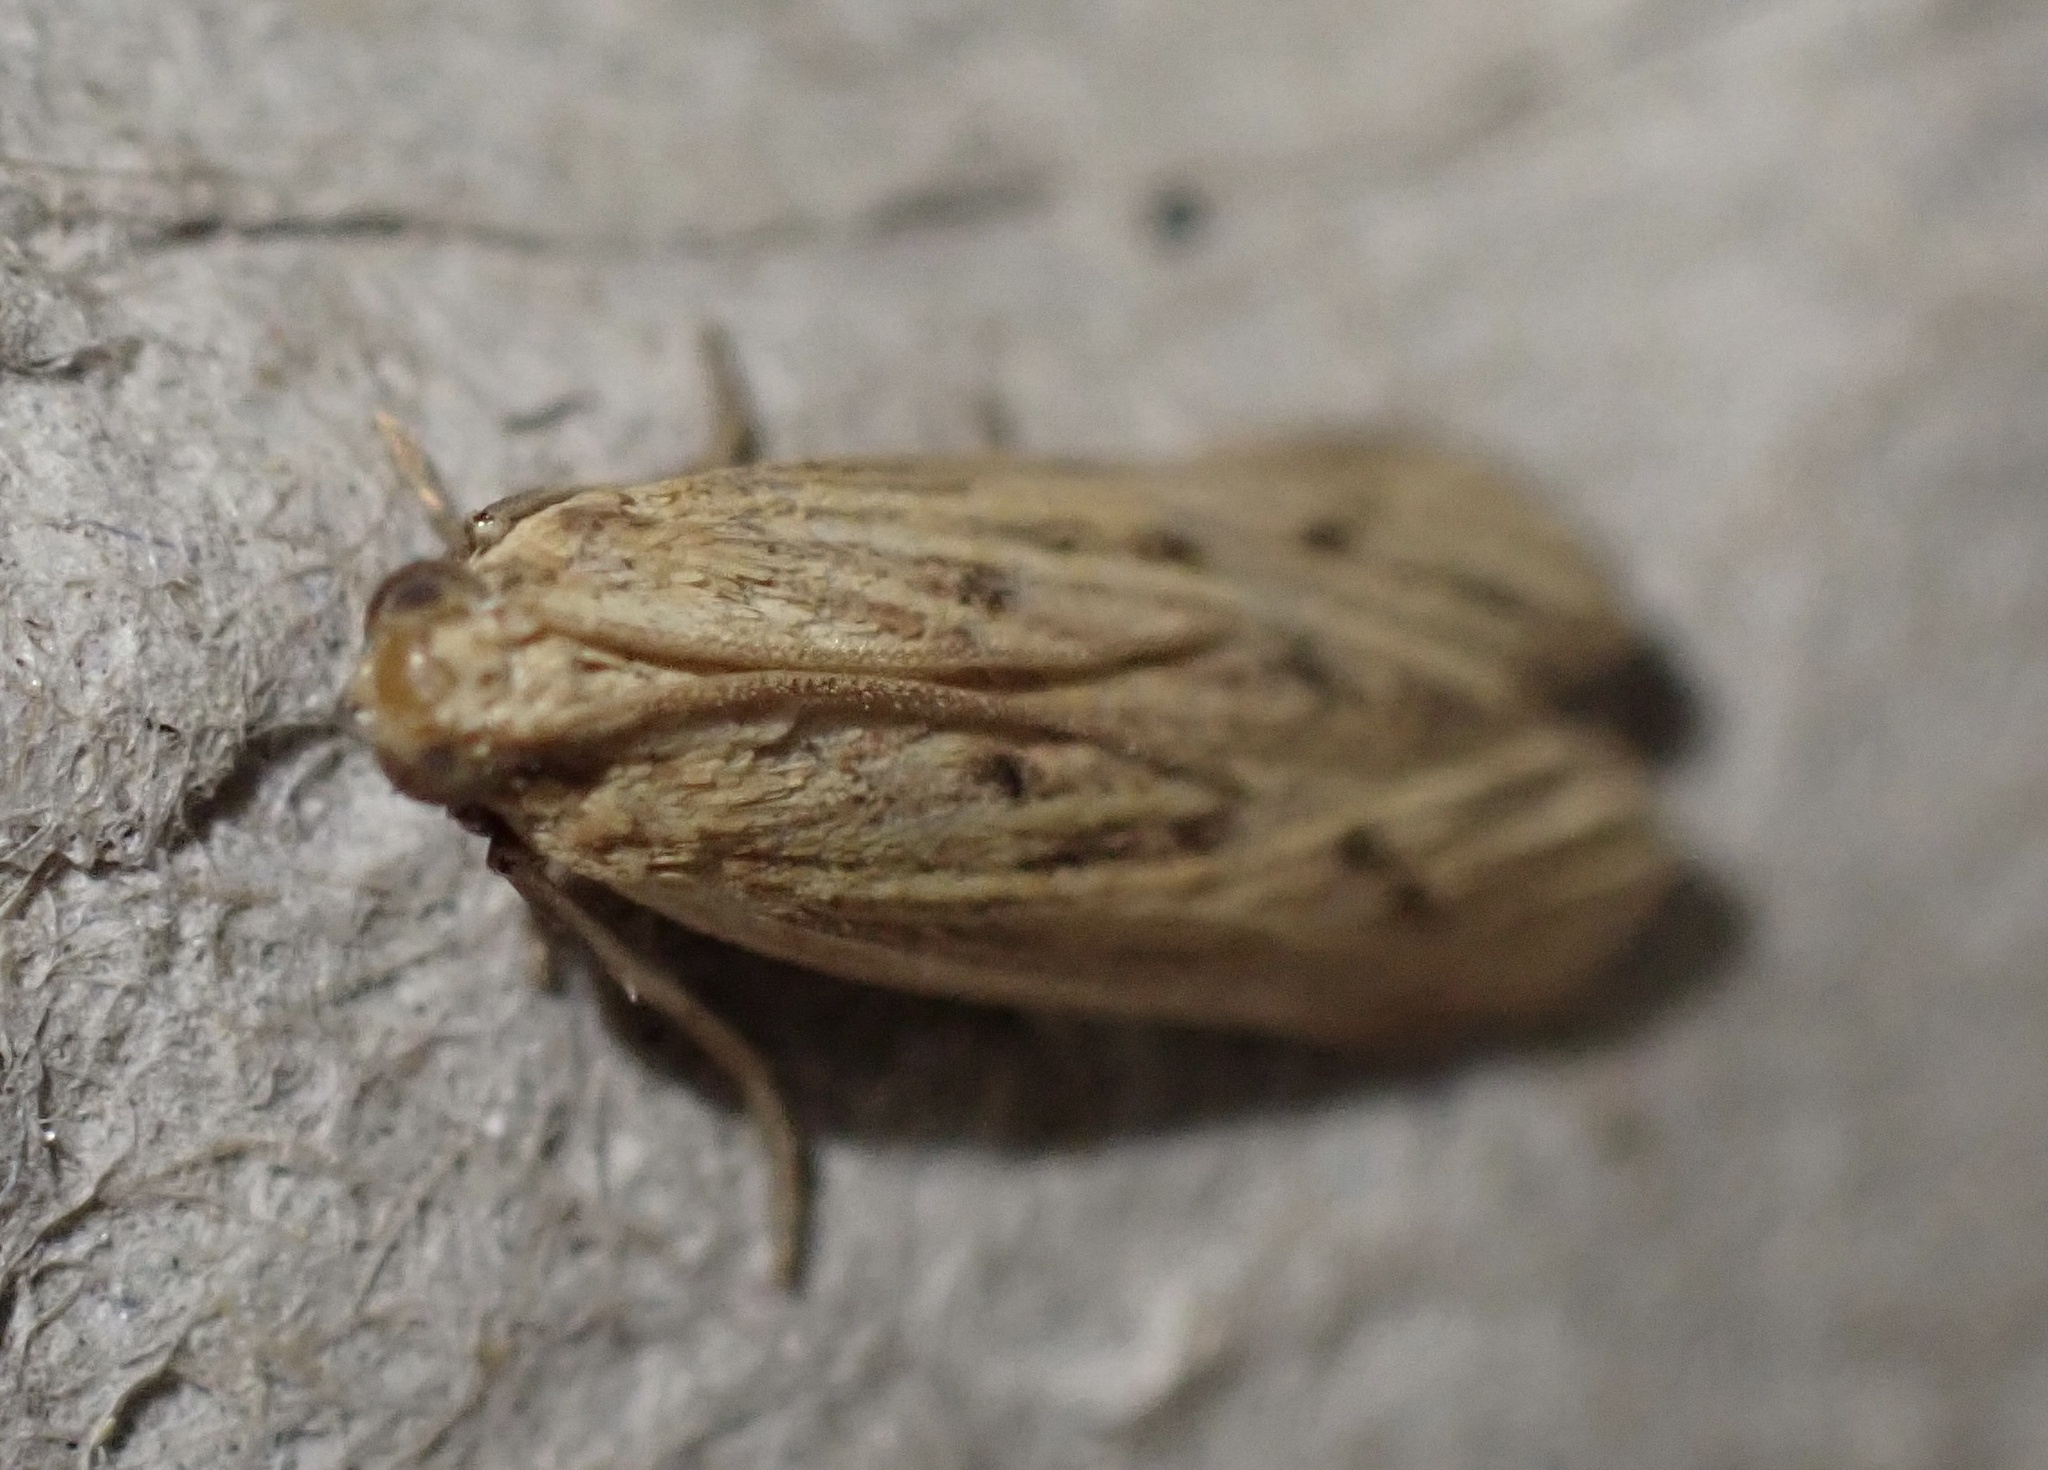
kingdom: Animalia
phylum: Arthropoda
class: Insecta
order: Lepidoptera
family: Pyralidae
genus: Ematheudes
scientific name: Ematheudes punctellus
